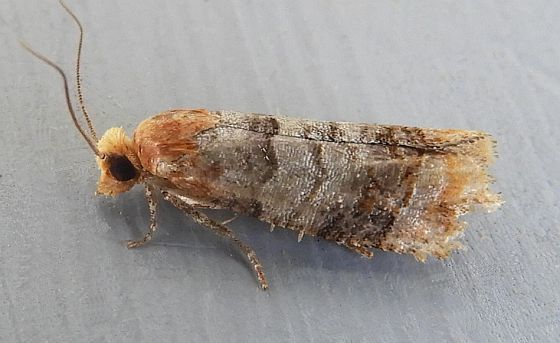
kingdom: Animalia
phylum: Arthropoda
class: Insecta
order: Lepidoptera
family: Tortricidae
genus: Retinia
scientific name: Retinia edemoidana
